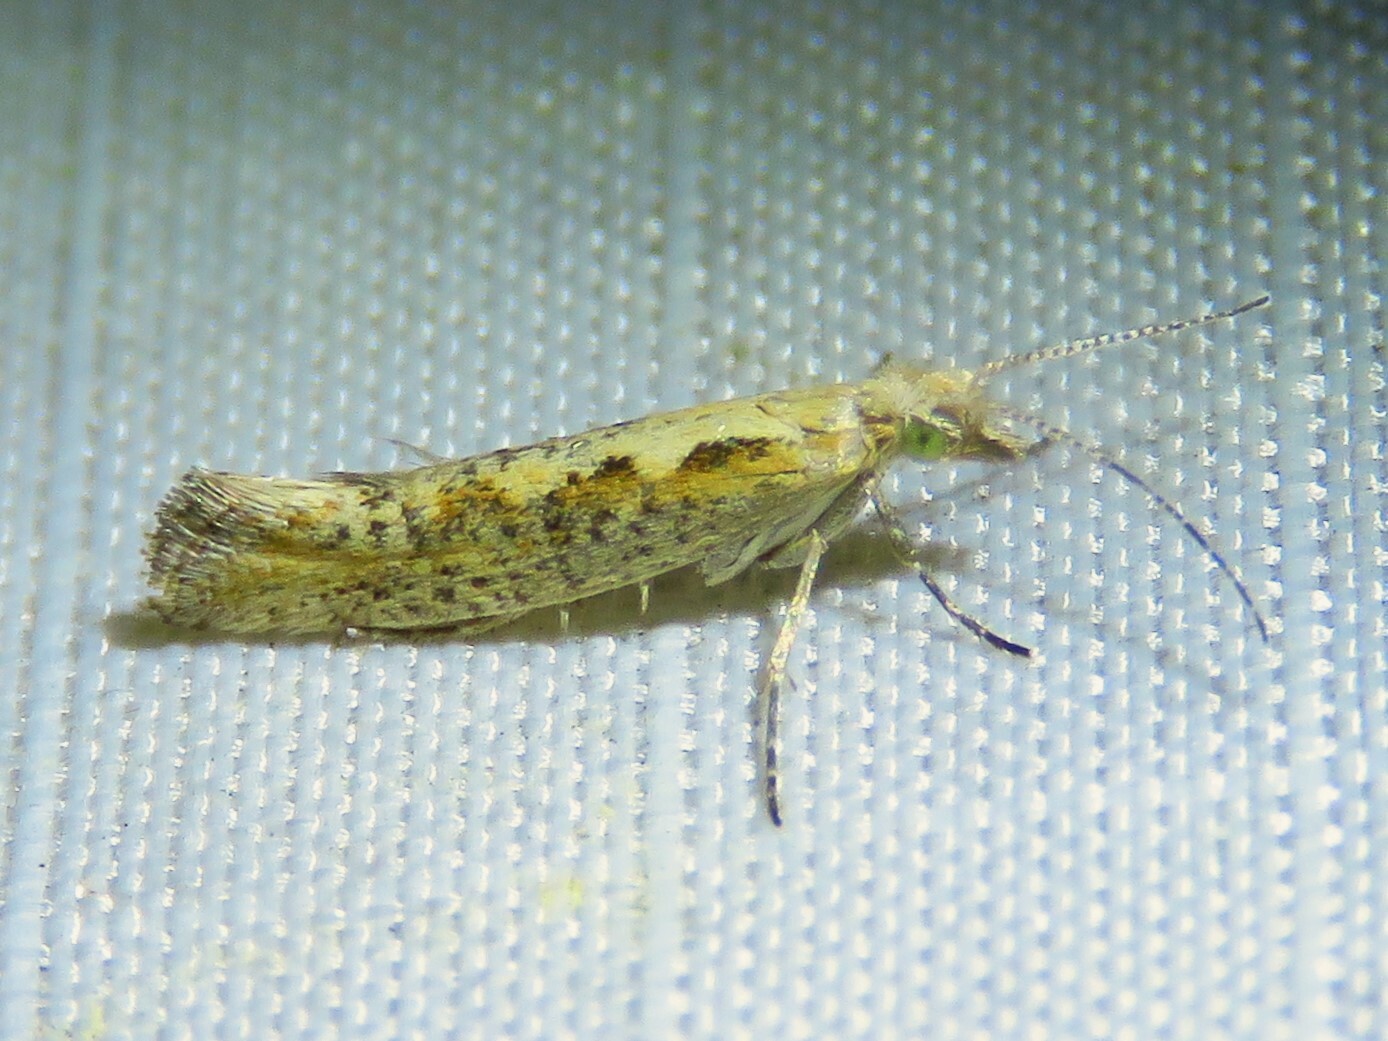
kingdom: Animalia
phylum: Arthropoda
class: Insecta
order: Lepidoptera
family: Plutellidae
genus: Plutella
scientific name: Plutella xylostella
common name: Diamond-back moth
